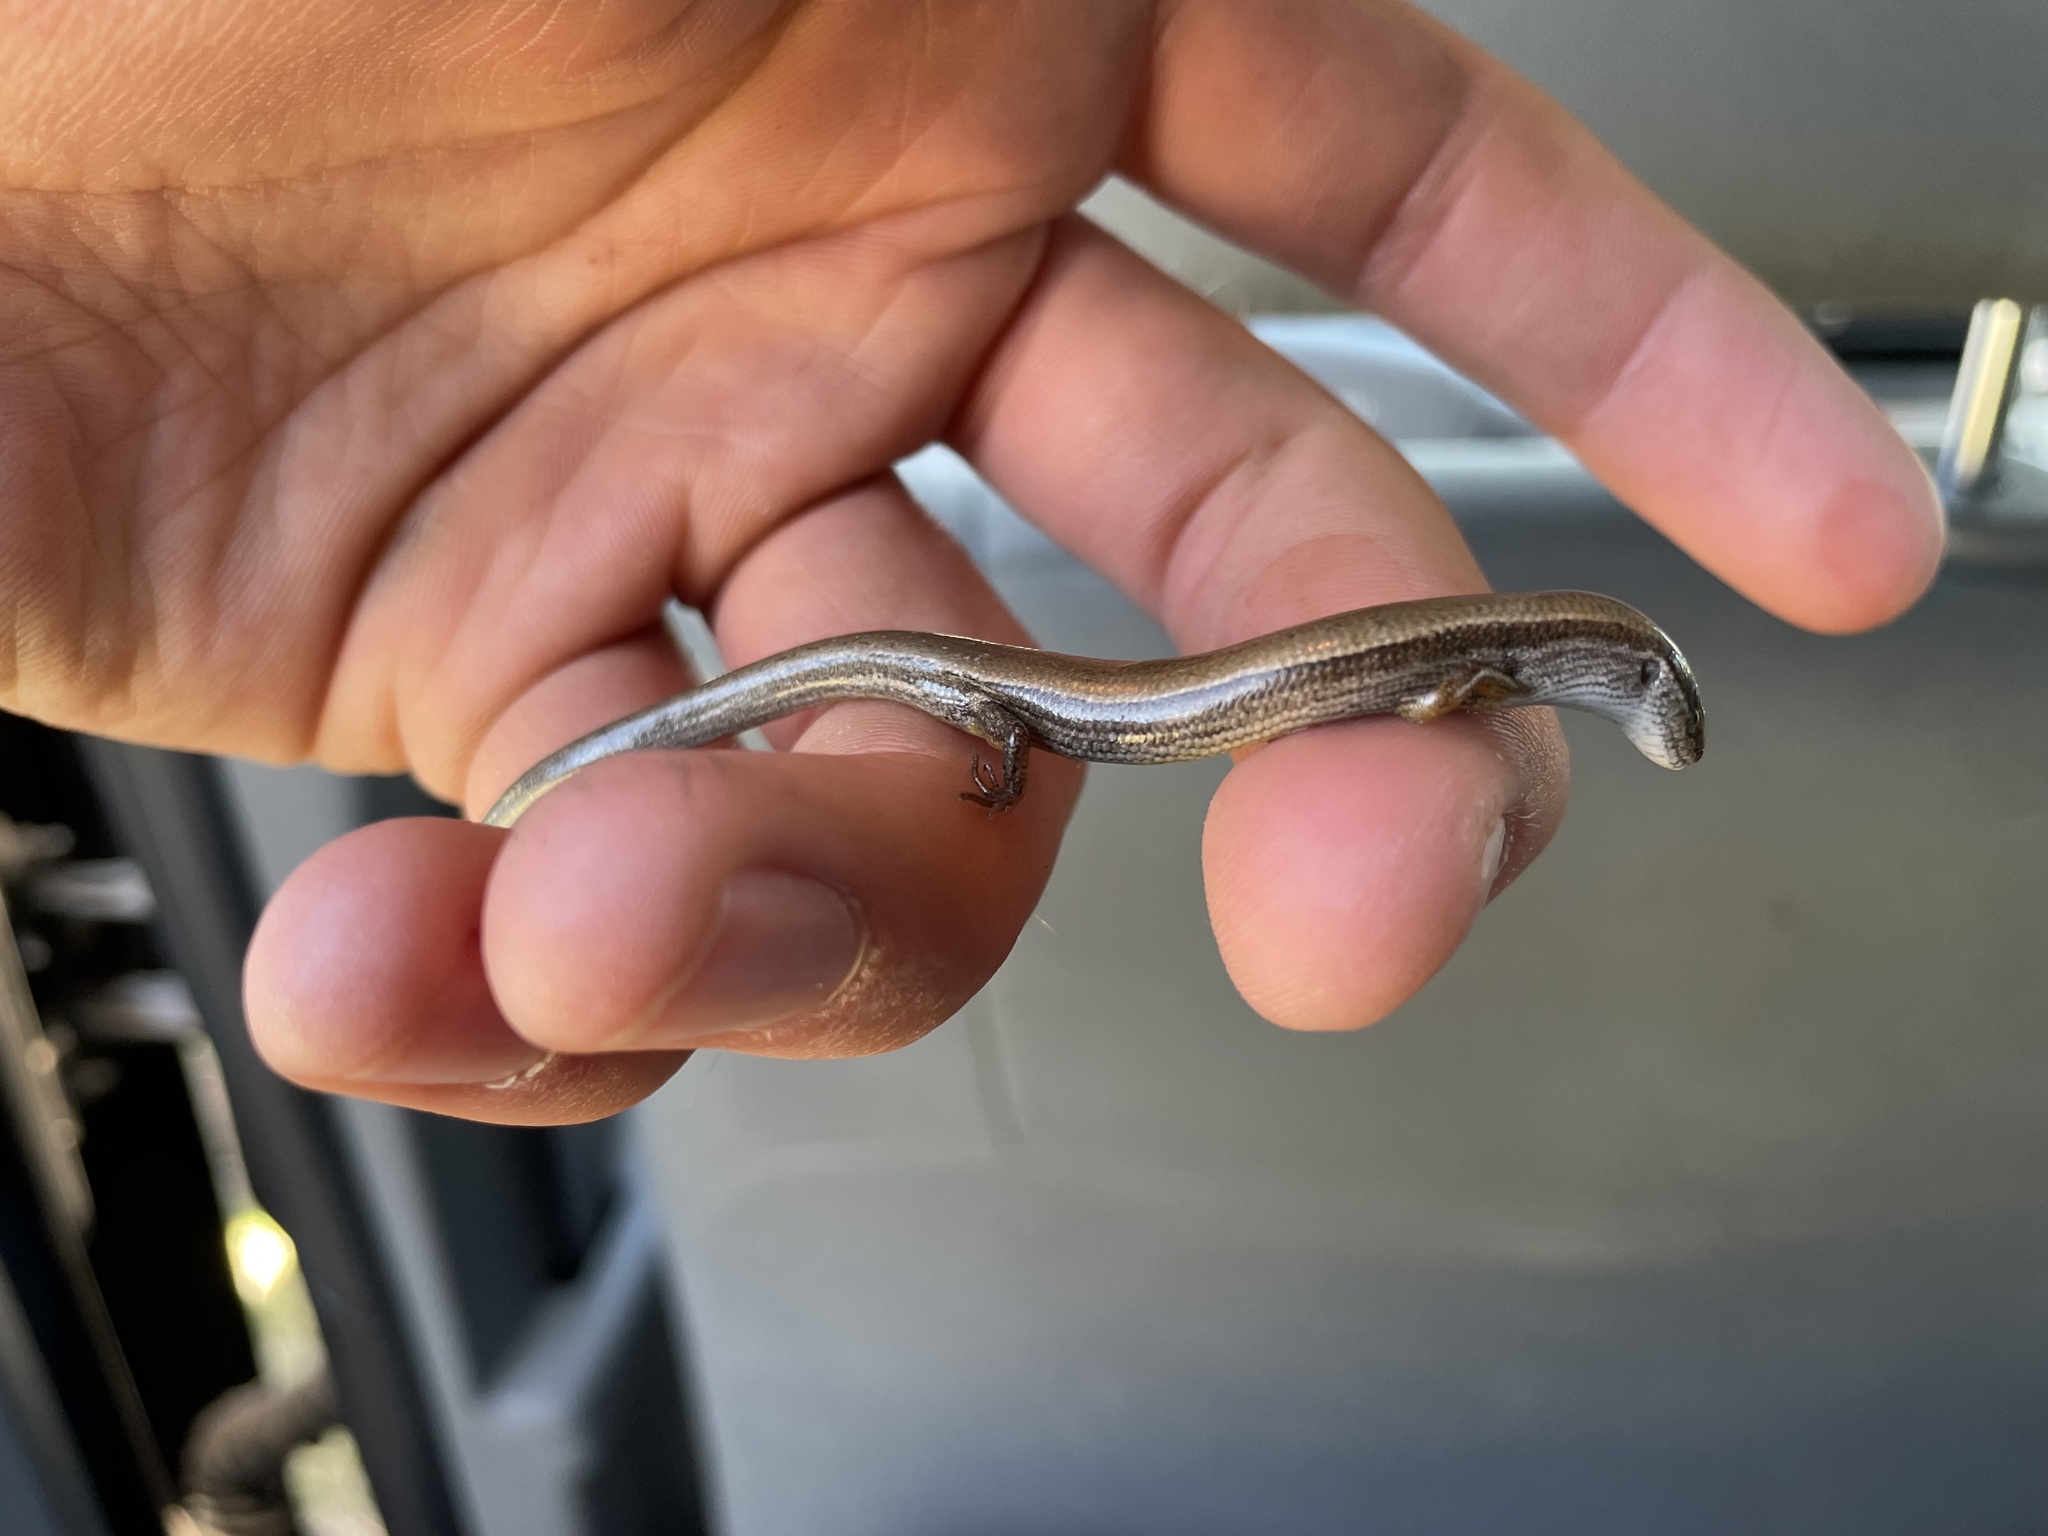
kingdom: Animalia
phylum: Chordata
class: Squamata
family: Scincidae
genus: Scincella
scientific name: Scincella lateralis
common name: Ground skink
